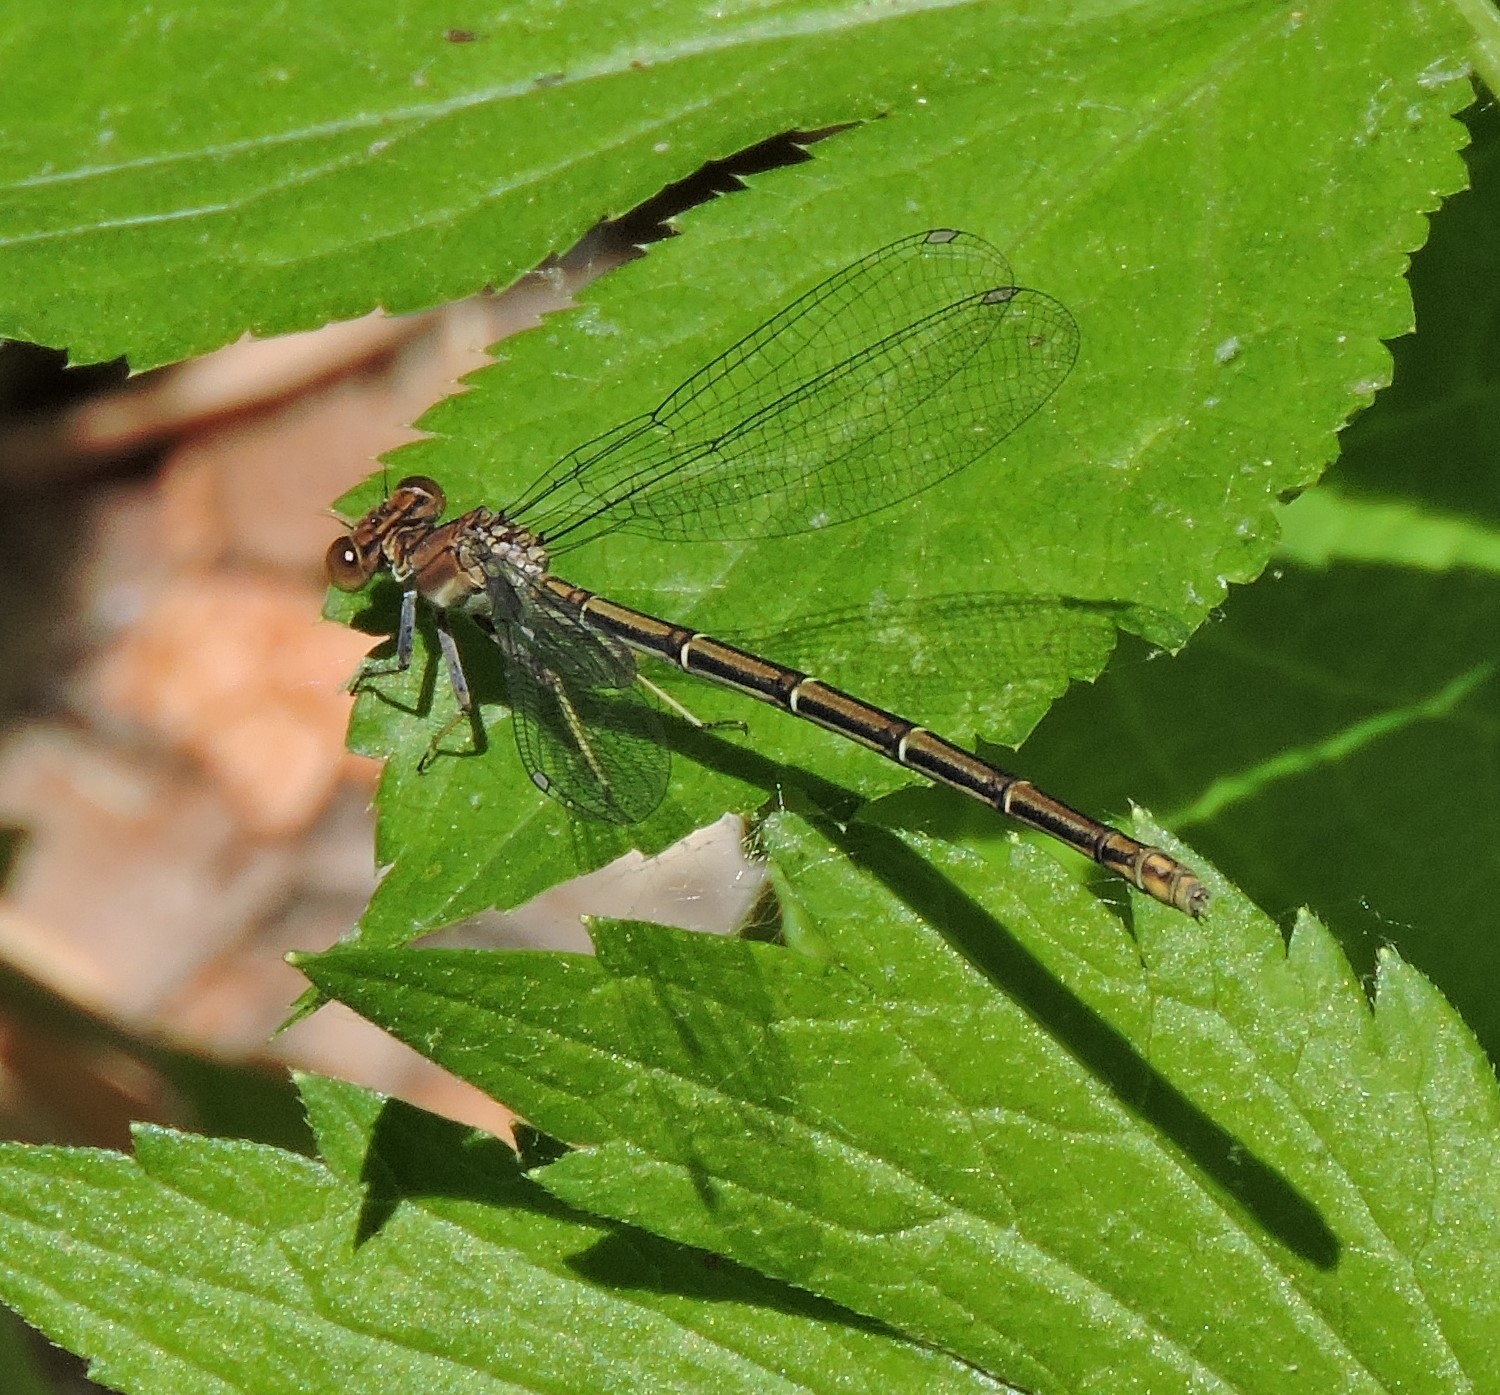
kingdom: Animalia
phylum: Arthropoda
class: Insecta
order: Odonata
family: Coenagrionidae
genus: Argia
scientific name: Argia moesta
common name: Powdered dancer
